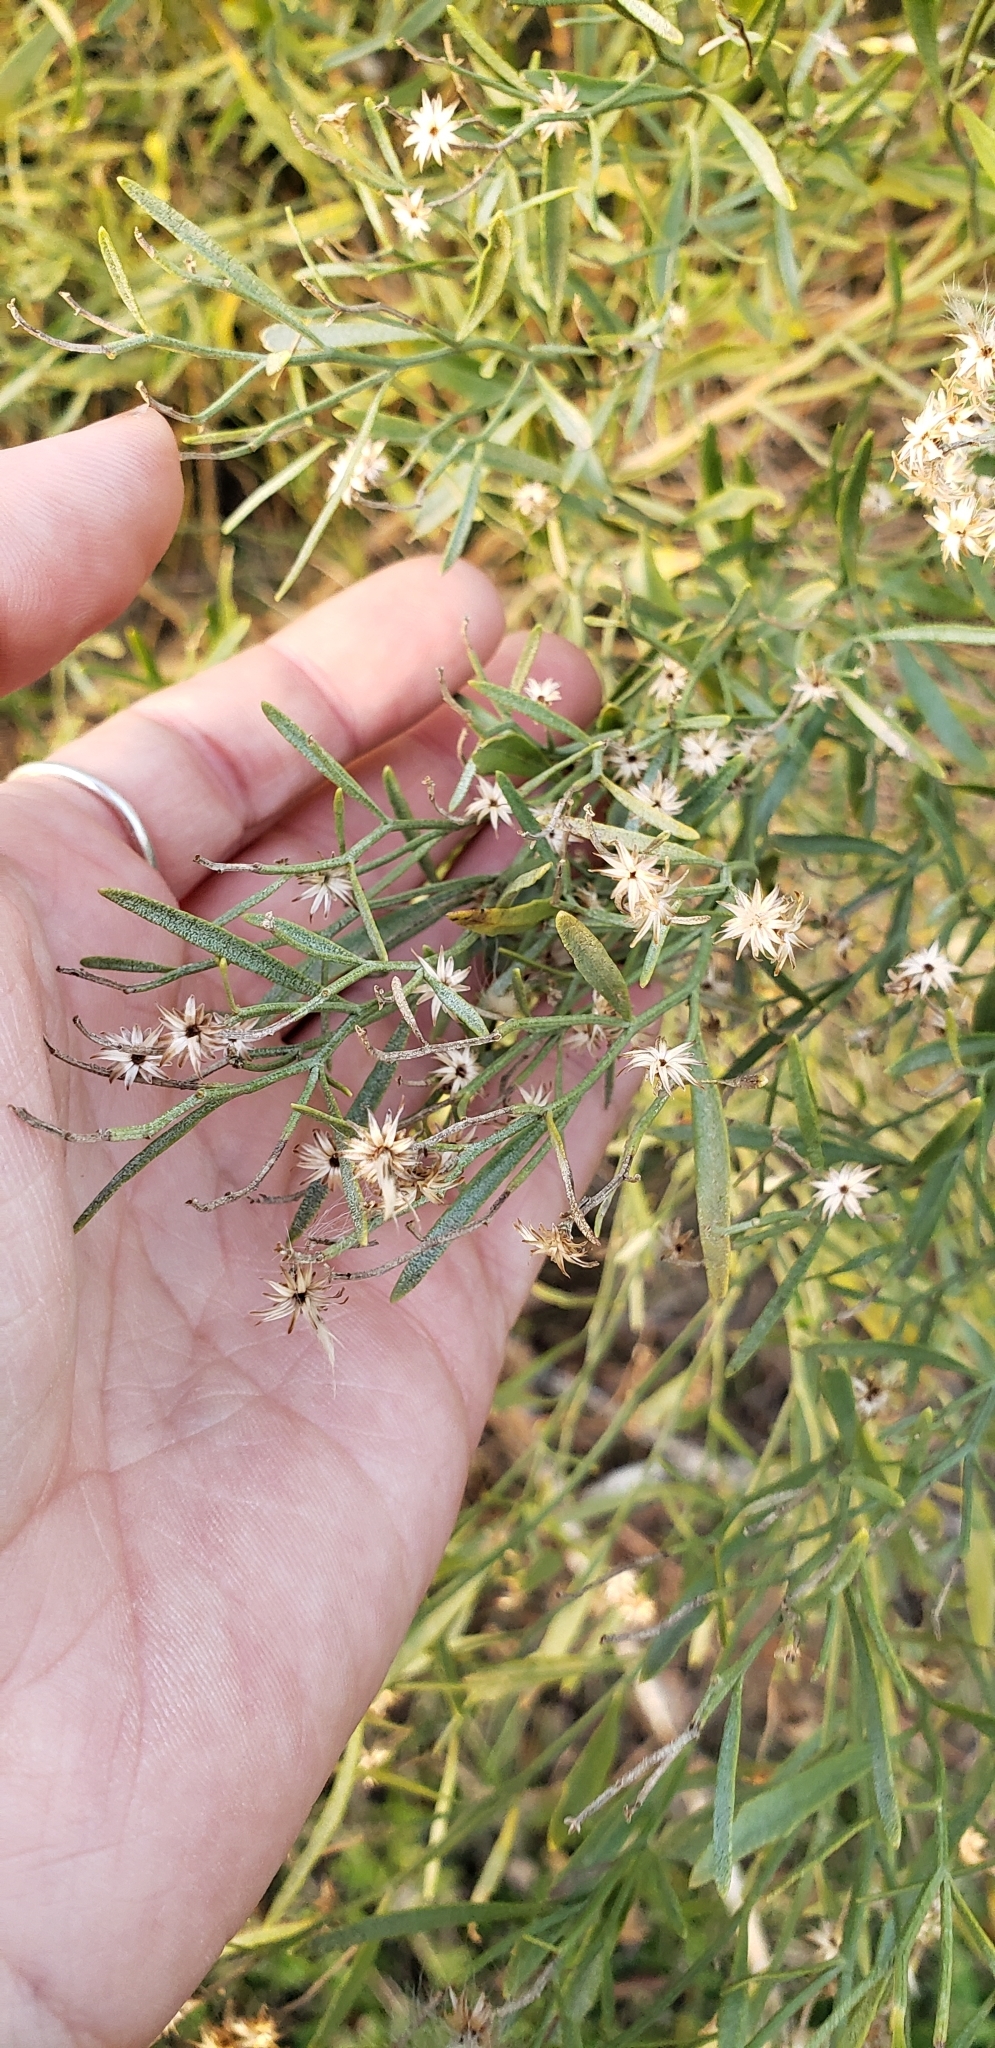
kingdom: Plantae
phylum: Tracheophyta
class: Magnoliopsida
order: Asterales
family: Asteraceae
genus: Baccharis
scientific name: Baccharis neglecta
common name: Roosevelt-weed
